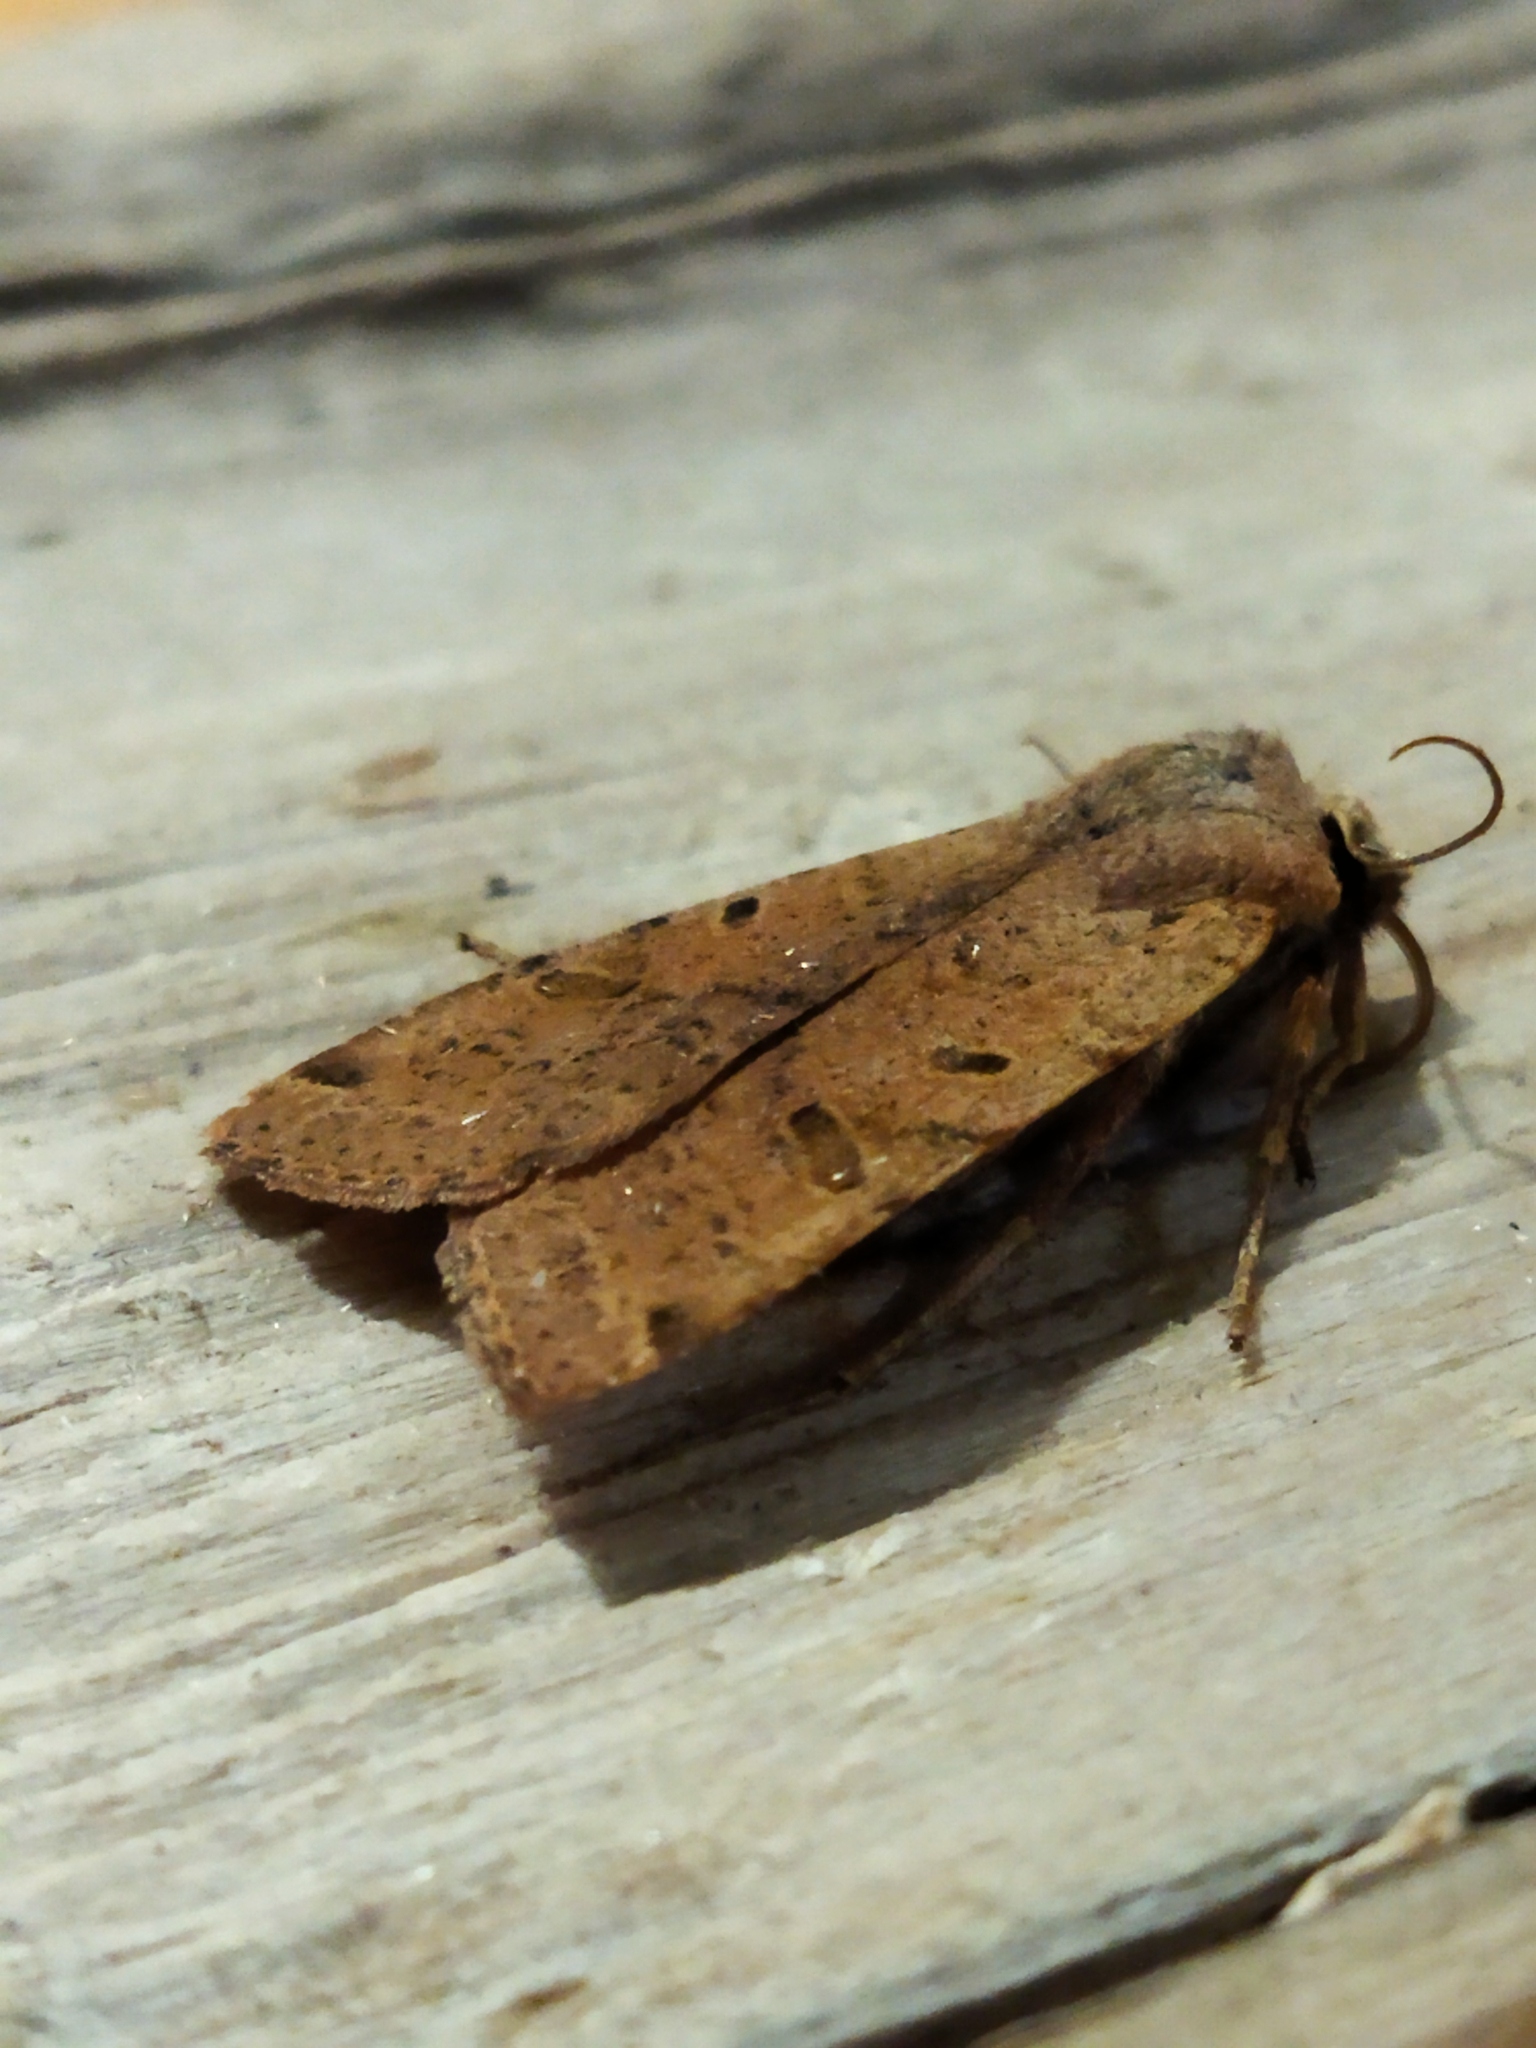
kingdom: Animalia
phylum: Arthropoda
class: Insecta
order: Lepidoptera
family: Noctuidae
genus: Agrochola
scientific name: Agrochola lychnidis
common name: Beaded chestnut
